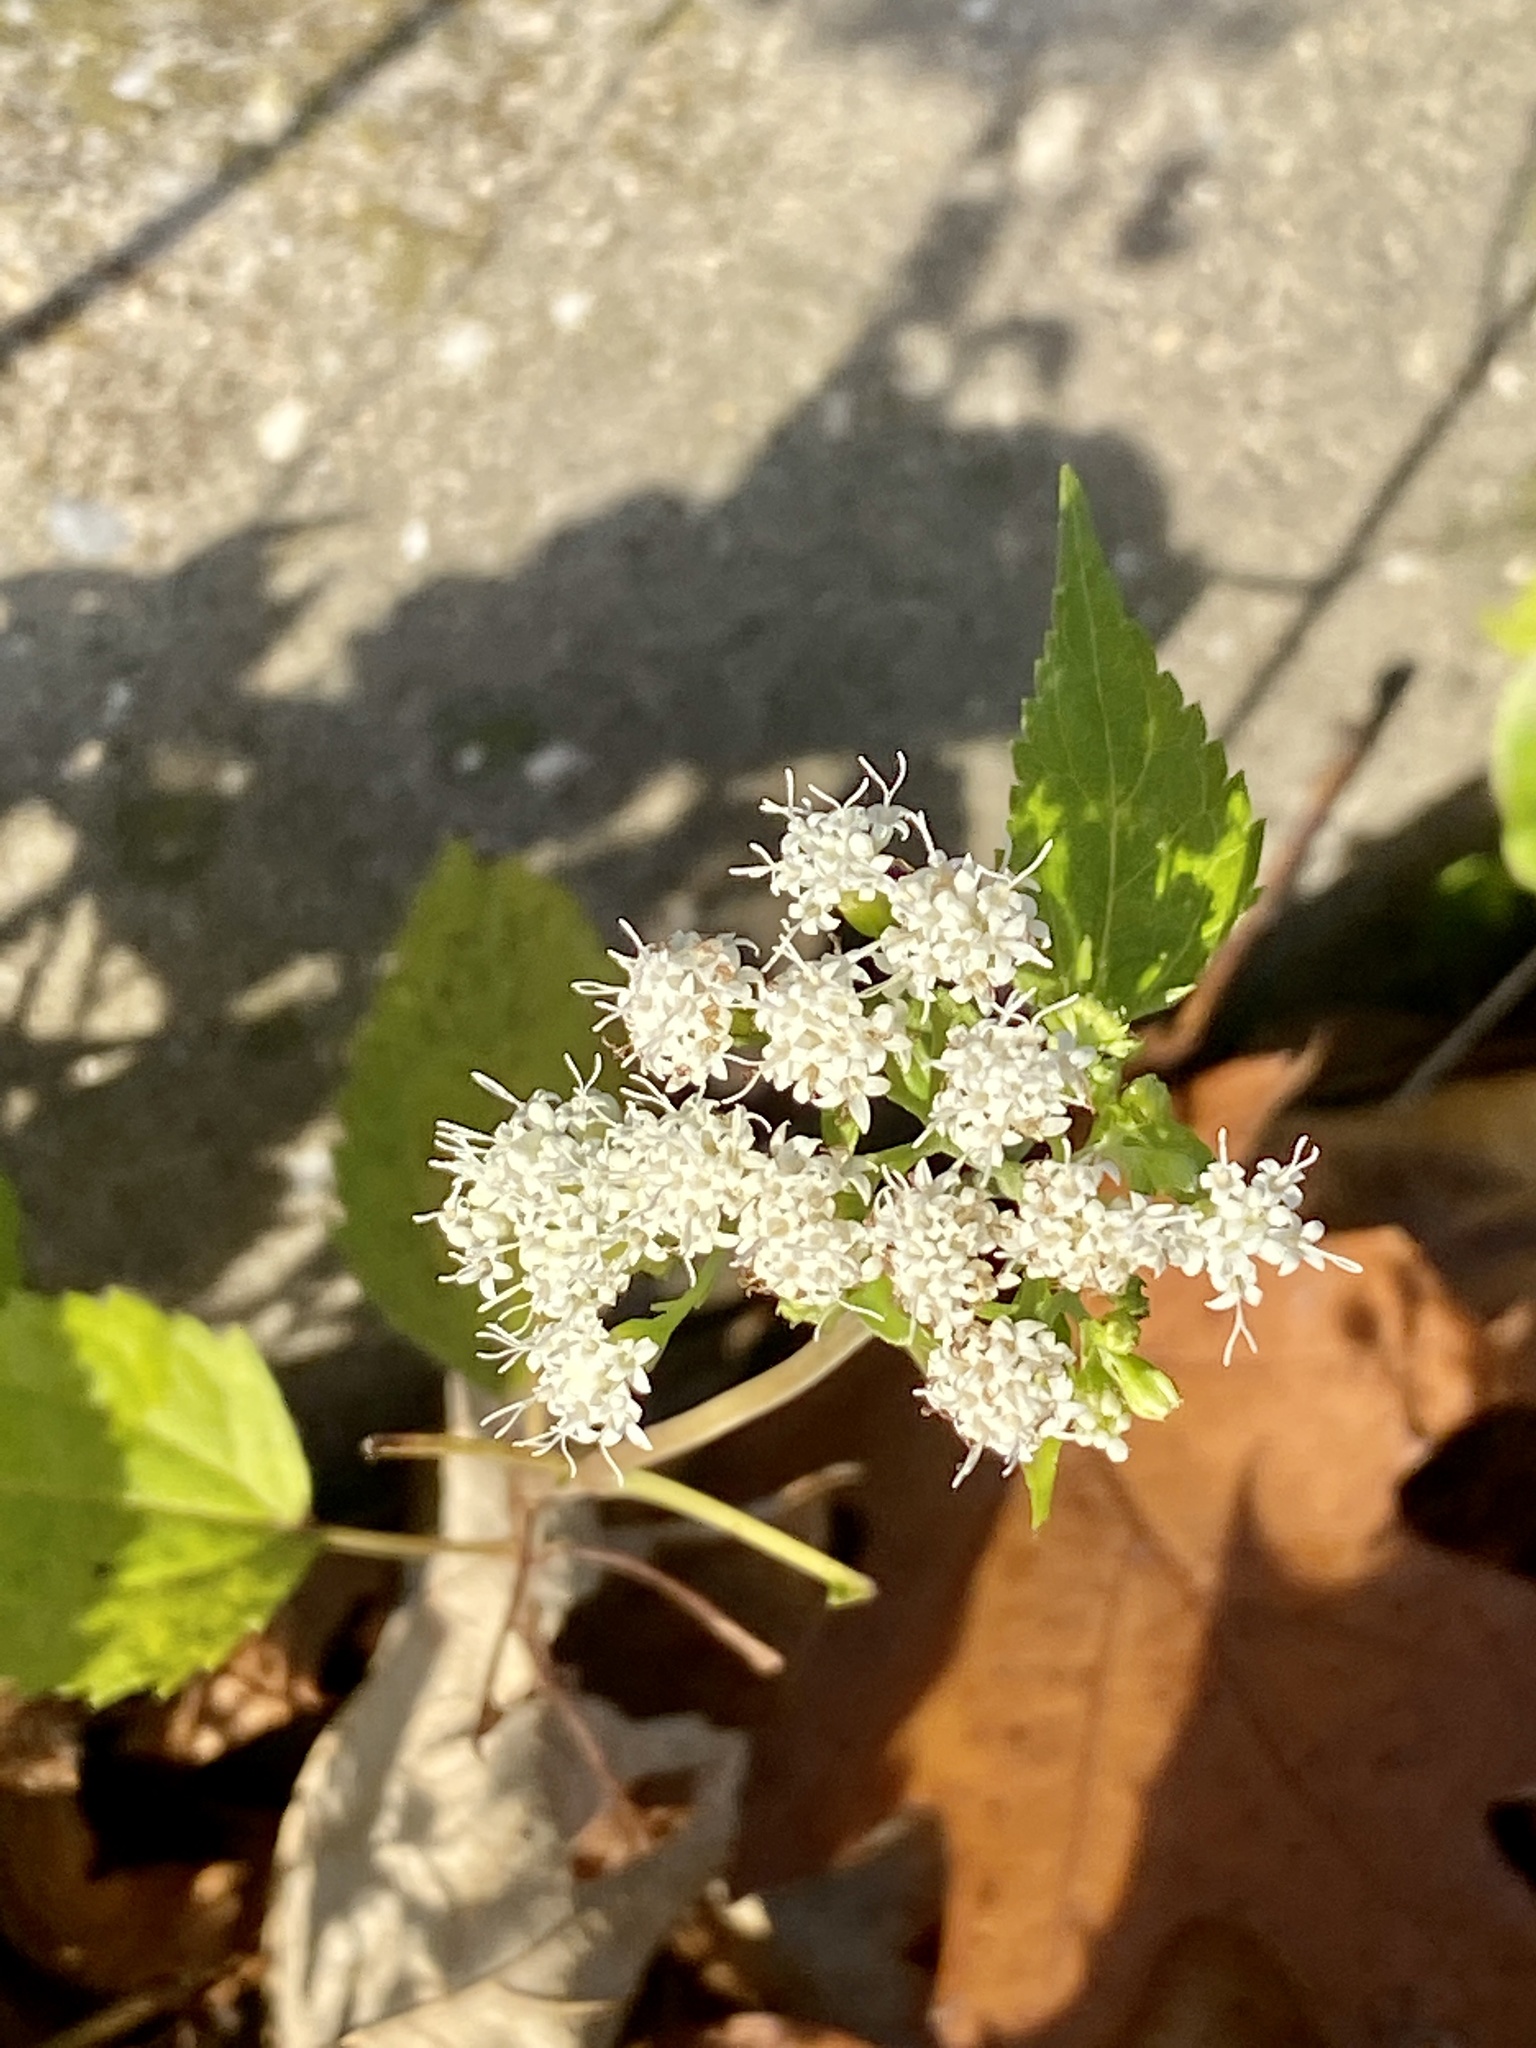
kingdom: Plantae
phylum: Tracheophyta
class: Magnoliopsida
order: Asterales
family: Asteraceae
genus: Ageratina
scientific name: Ageratina altissima
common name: White snakeroot
